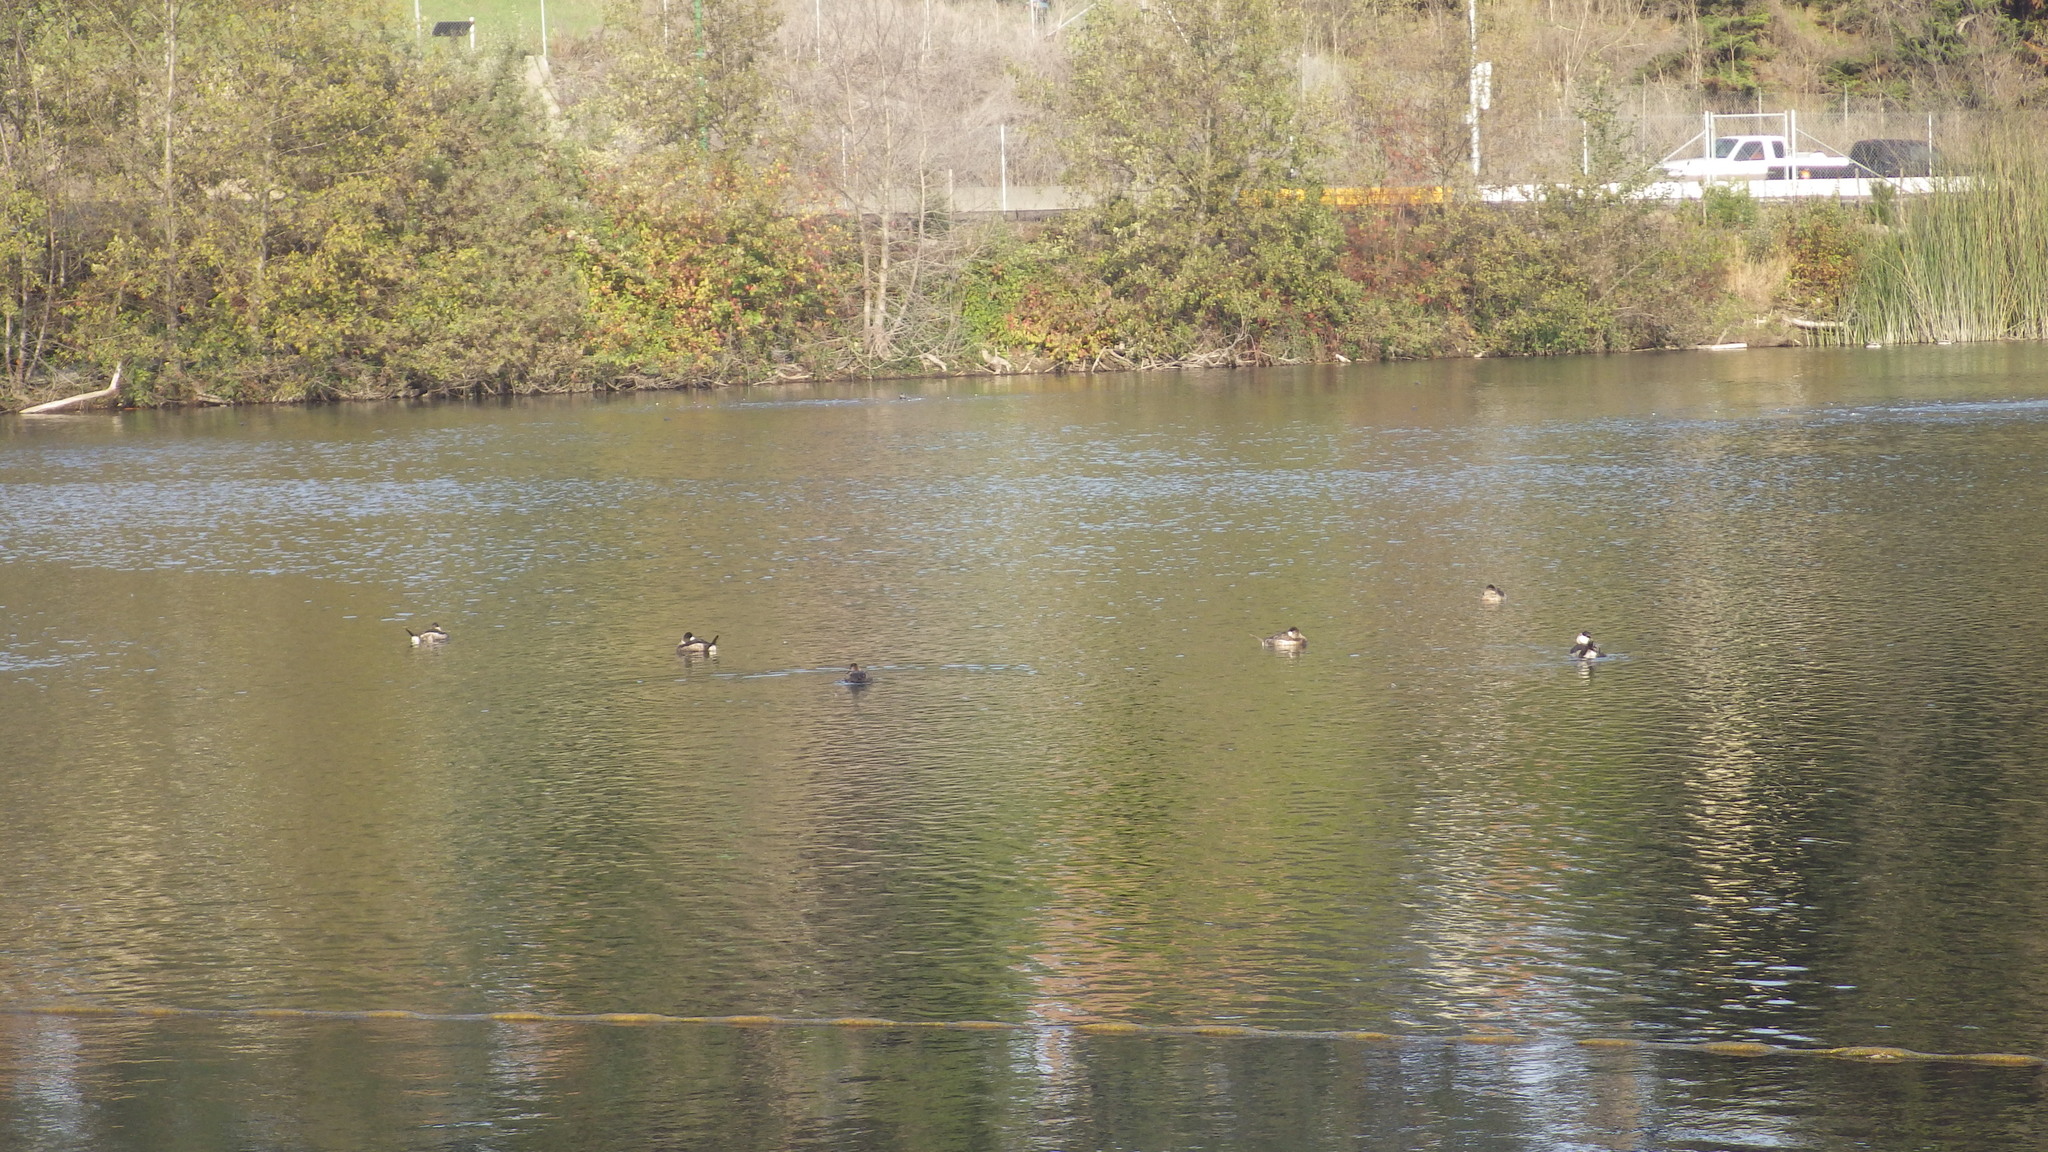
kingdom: Animalia
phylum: Chordata
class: Aves
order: Anseriformes
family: Anatidae
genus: Oxyura
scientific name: Oxyura jamaicensis
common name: Ruddy duck
